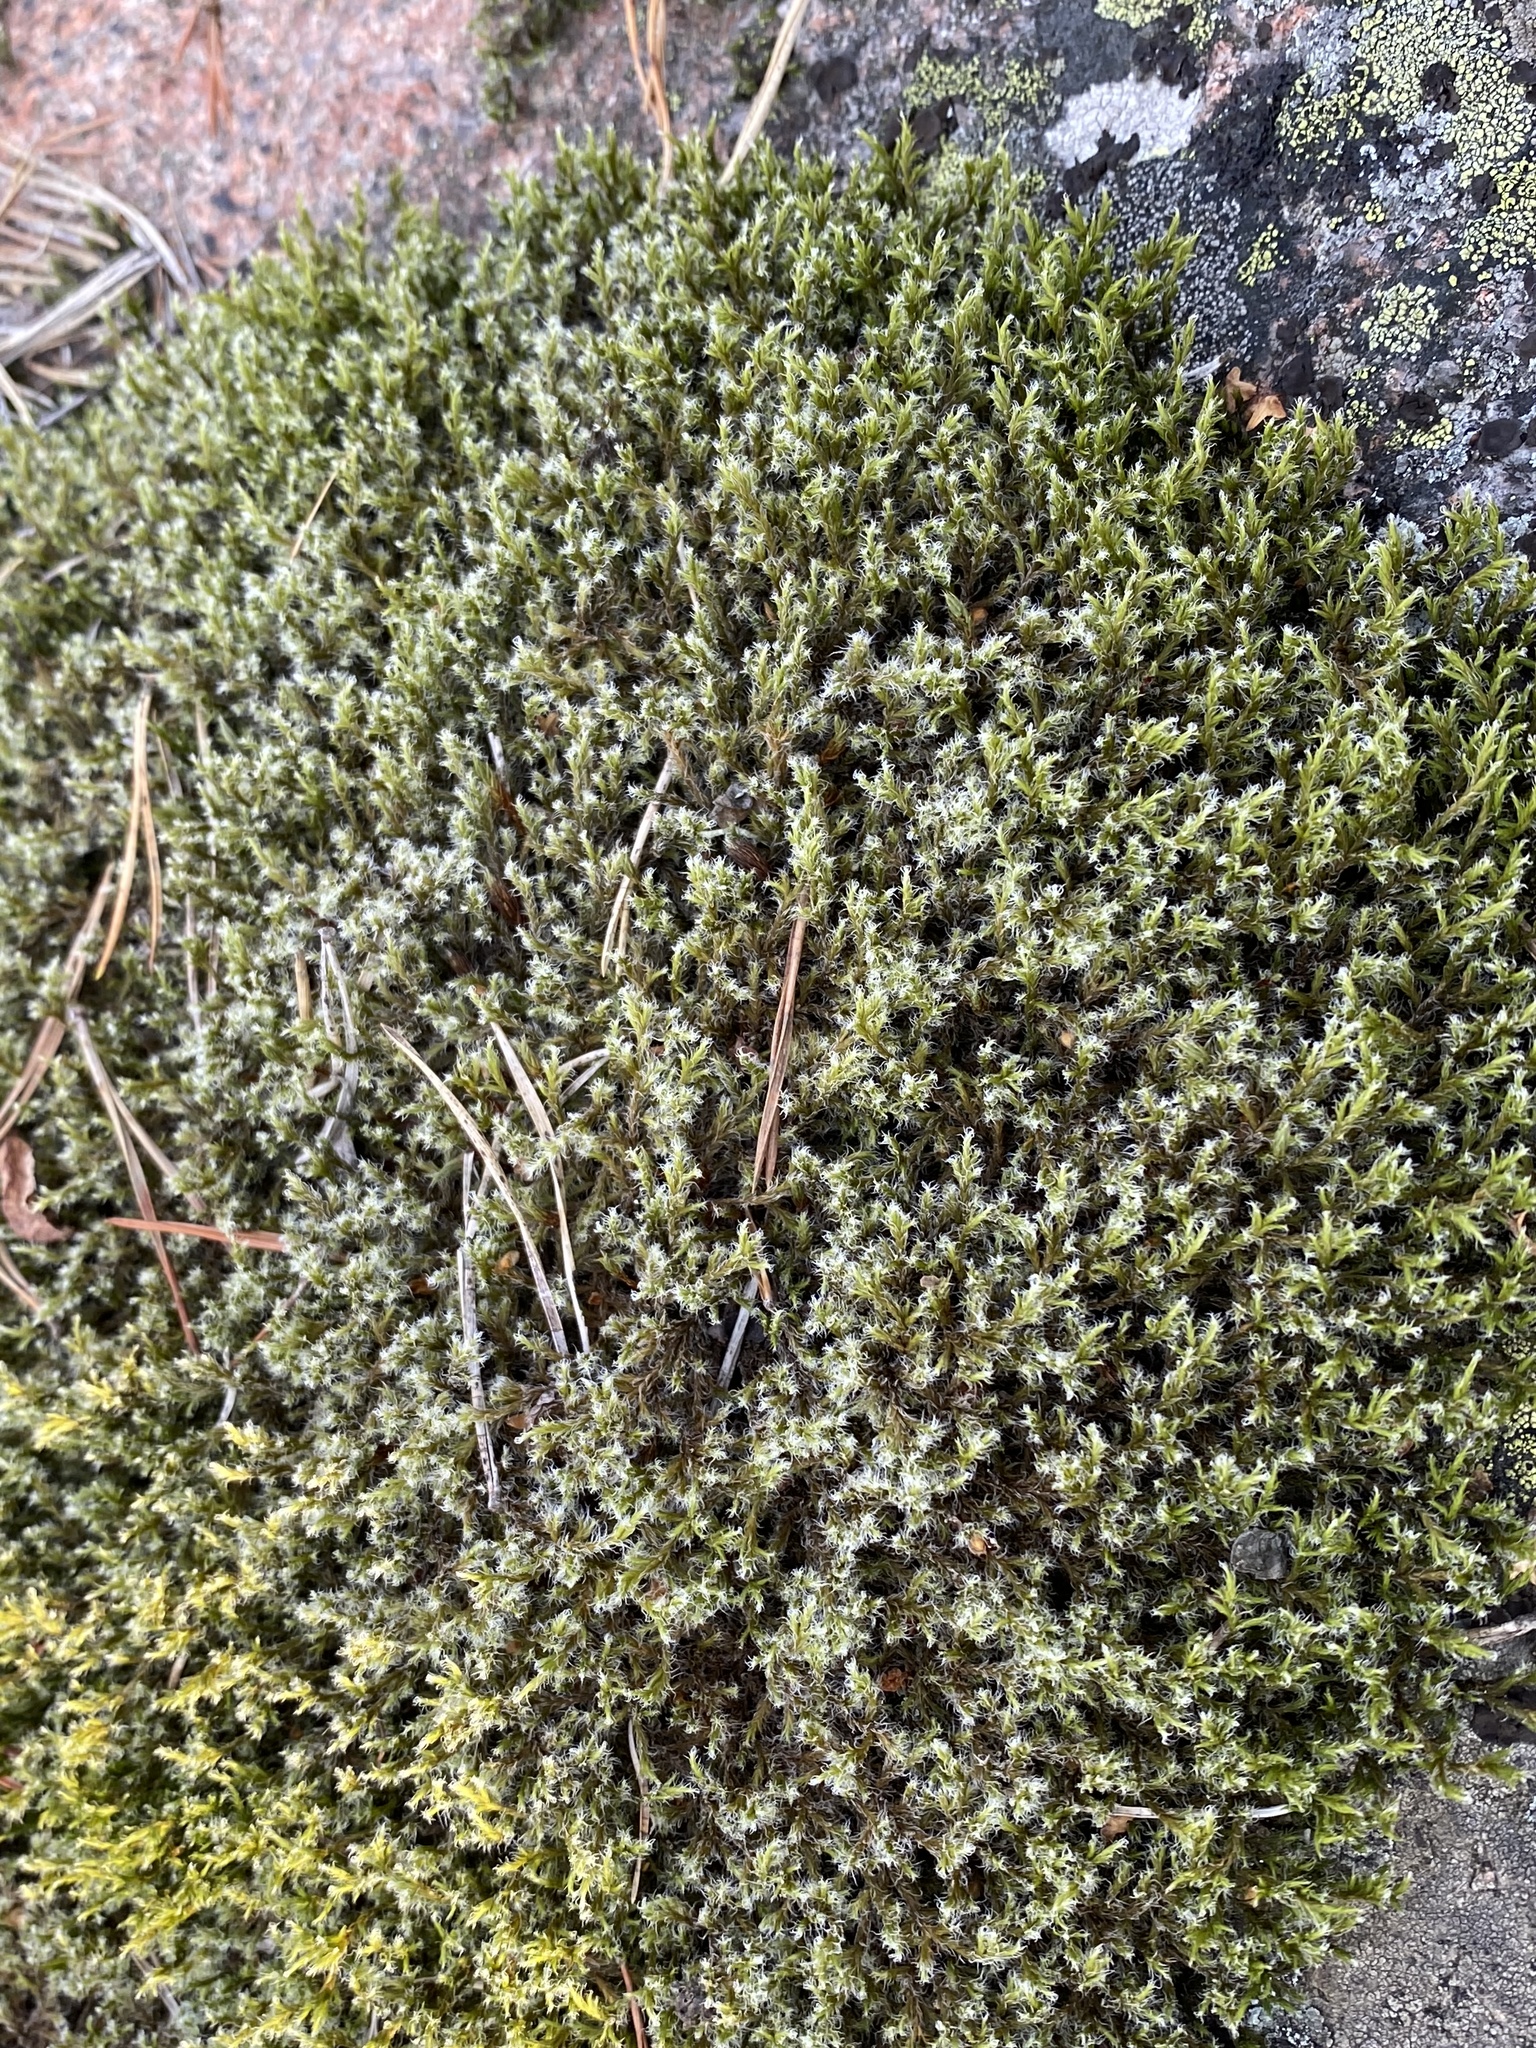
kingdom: Plantae
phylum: Bryophyta
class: Bryopsida
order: Grimmiales
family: Grimmiaceae
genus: Racomitrium
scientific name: Racomitrium lanuginosum
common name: Hoary rock moss
